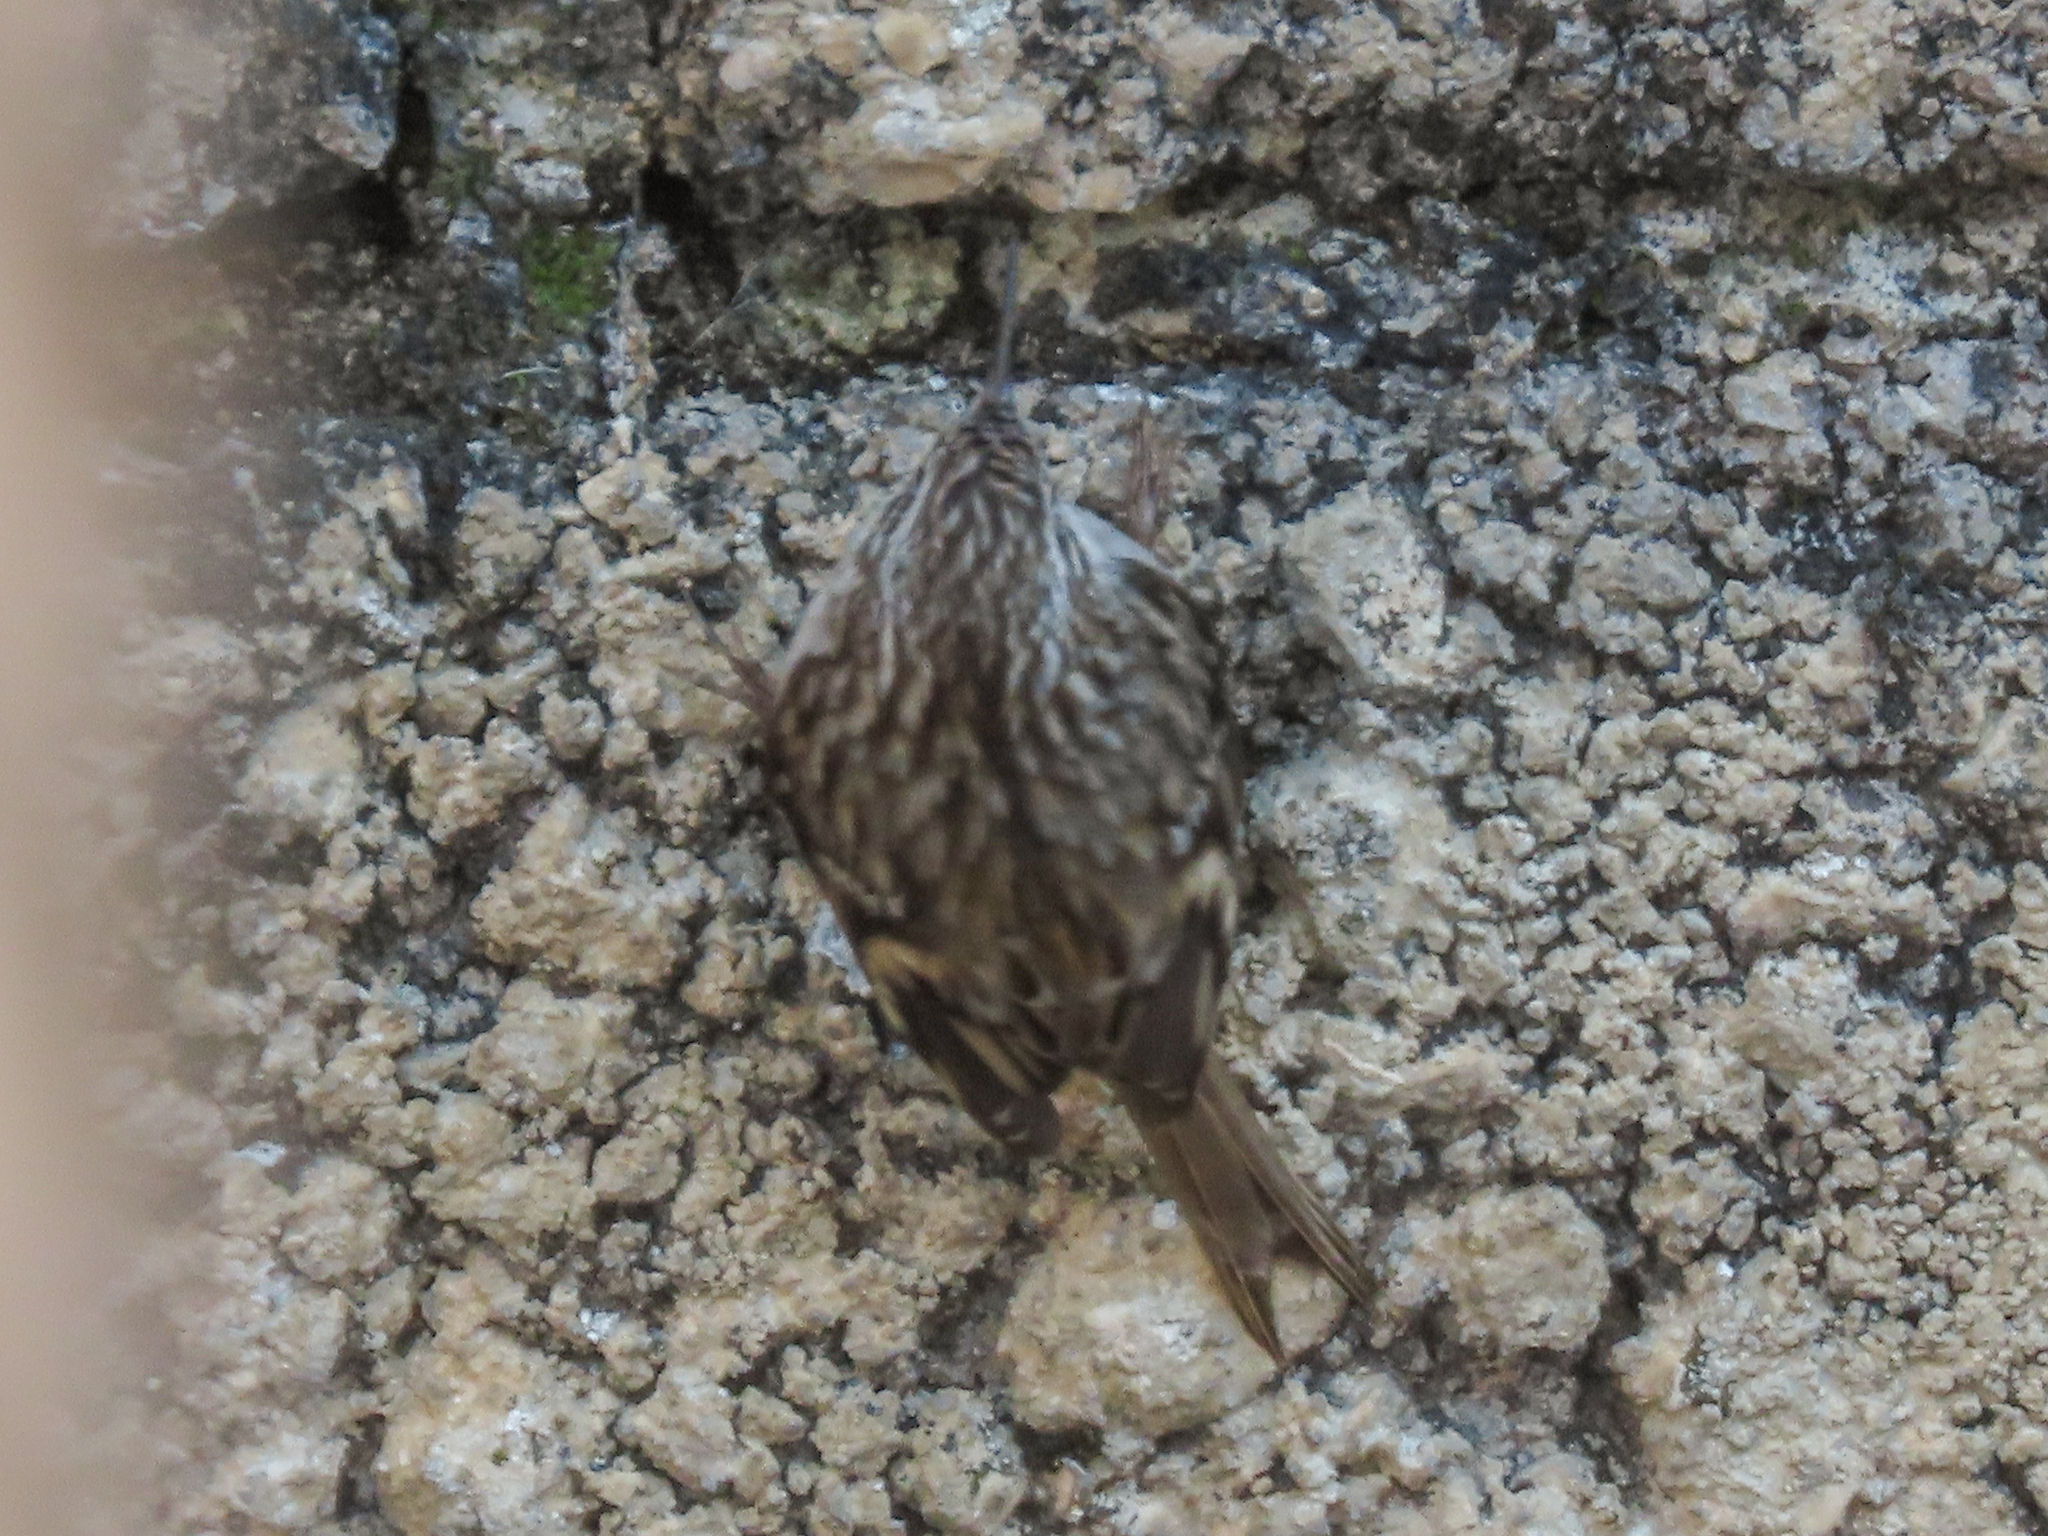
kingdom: Animalia
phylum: Chordata
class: Aves
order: Passeriformes
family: Certhiidae
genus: Certhia
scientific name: Certhia brachydactyla
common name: Short-toed treecreeper
